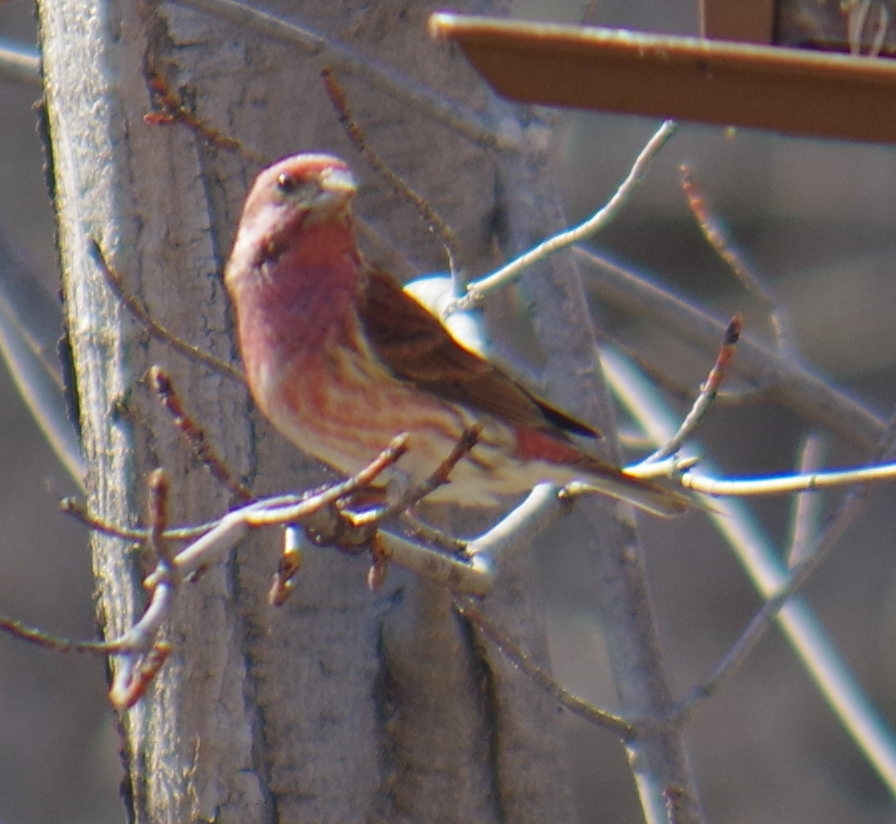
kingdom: Animalia
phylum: Chordata
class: Aves
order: Passeriformes
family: Fringillidae
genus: Haemorhous
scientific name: Haemorhous purpureus
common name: Purple finch
